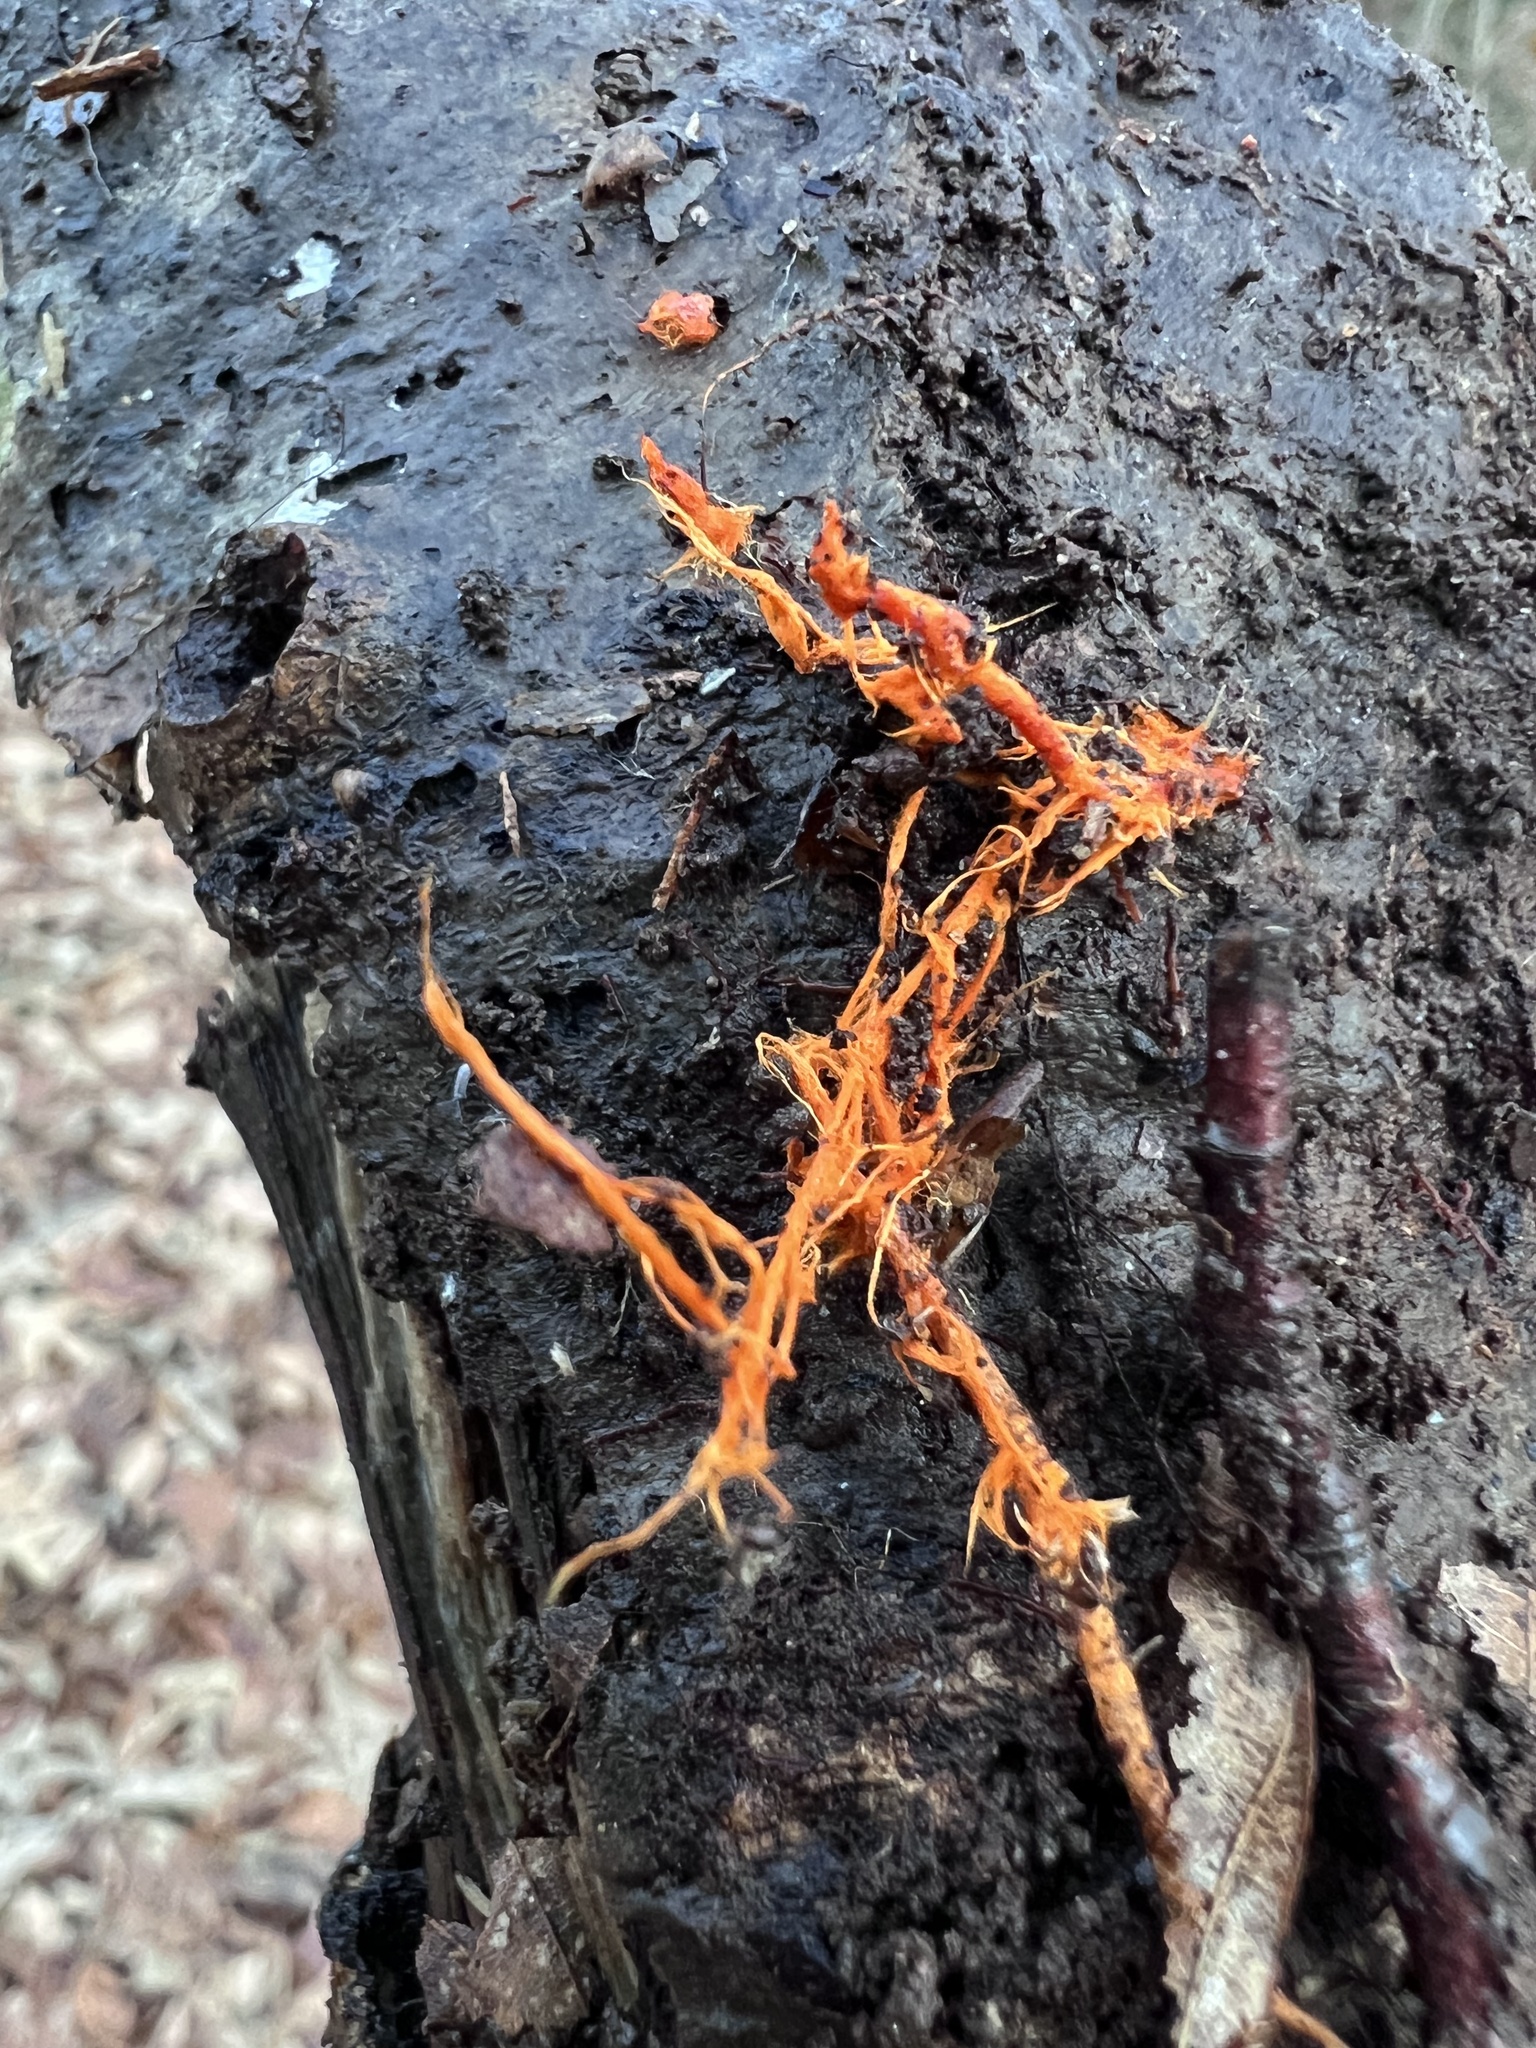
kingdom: Fungi
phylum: Basidiomycota
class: Agaricomycetes
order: Polyporales
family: Meruliaceae
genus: Hydnophlebia
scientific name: Hydnophlebia chrysorhiza
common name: Spreading yellow tooth
